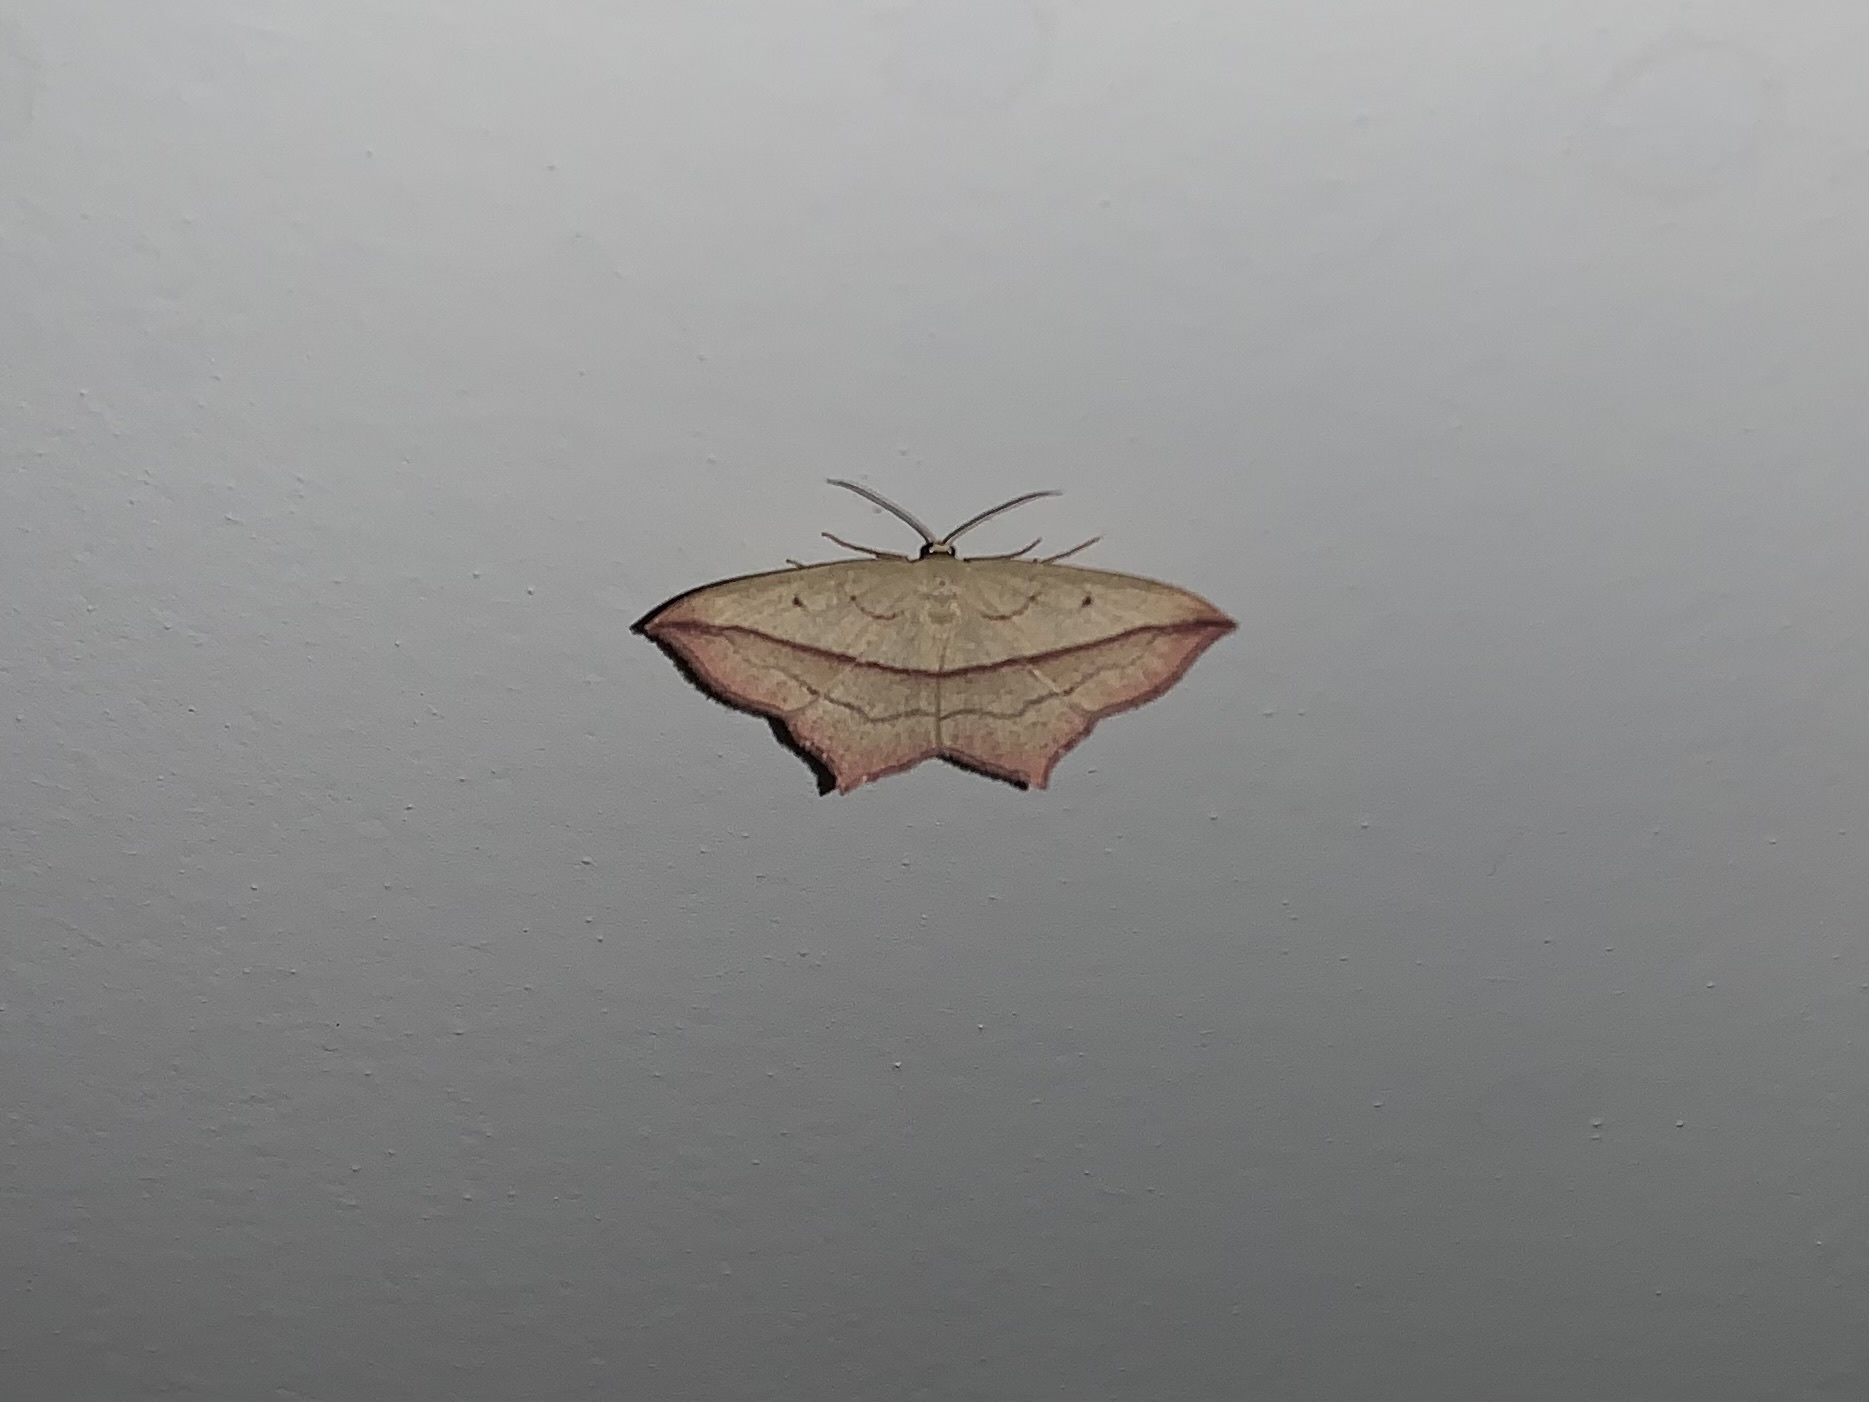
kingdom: Animalia
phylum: Arthropoda
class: Insecta
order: Lepidoptera
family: Geometridae
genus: Timandra
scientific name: Timandra comae
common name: Blood-vein
